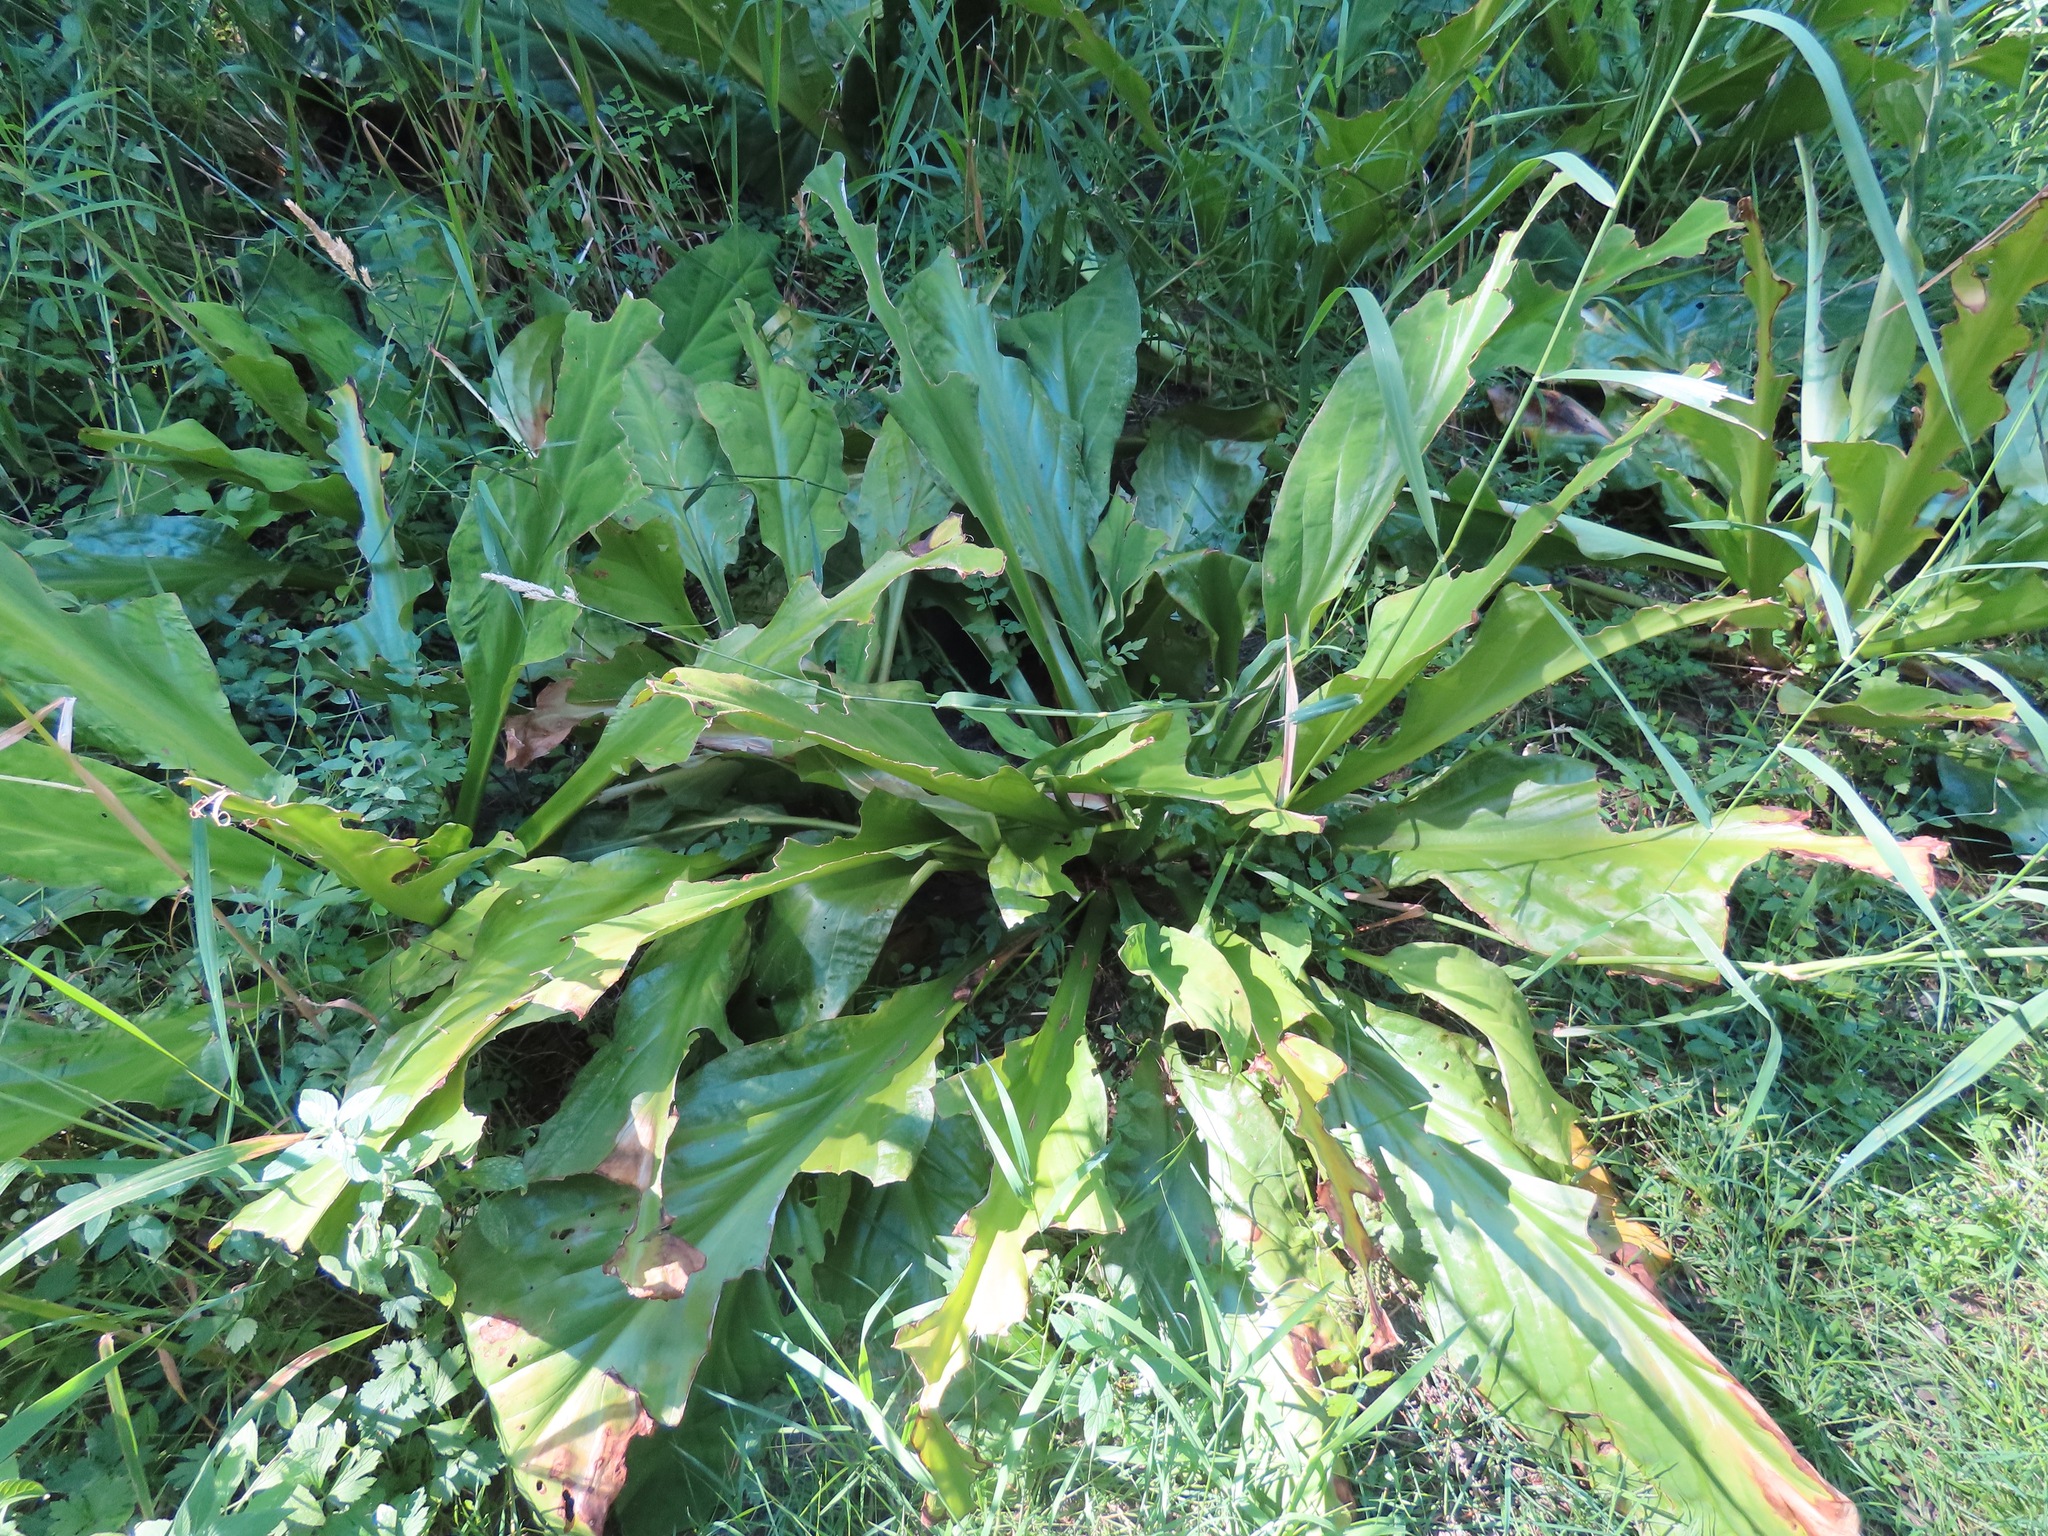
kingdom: Plantae
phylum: Tracheophyta
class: Liliopsida
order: Alismatales
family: Araceae
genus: Lysichiton
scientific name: Lysichiton americanus
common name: American skunk cabbage
